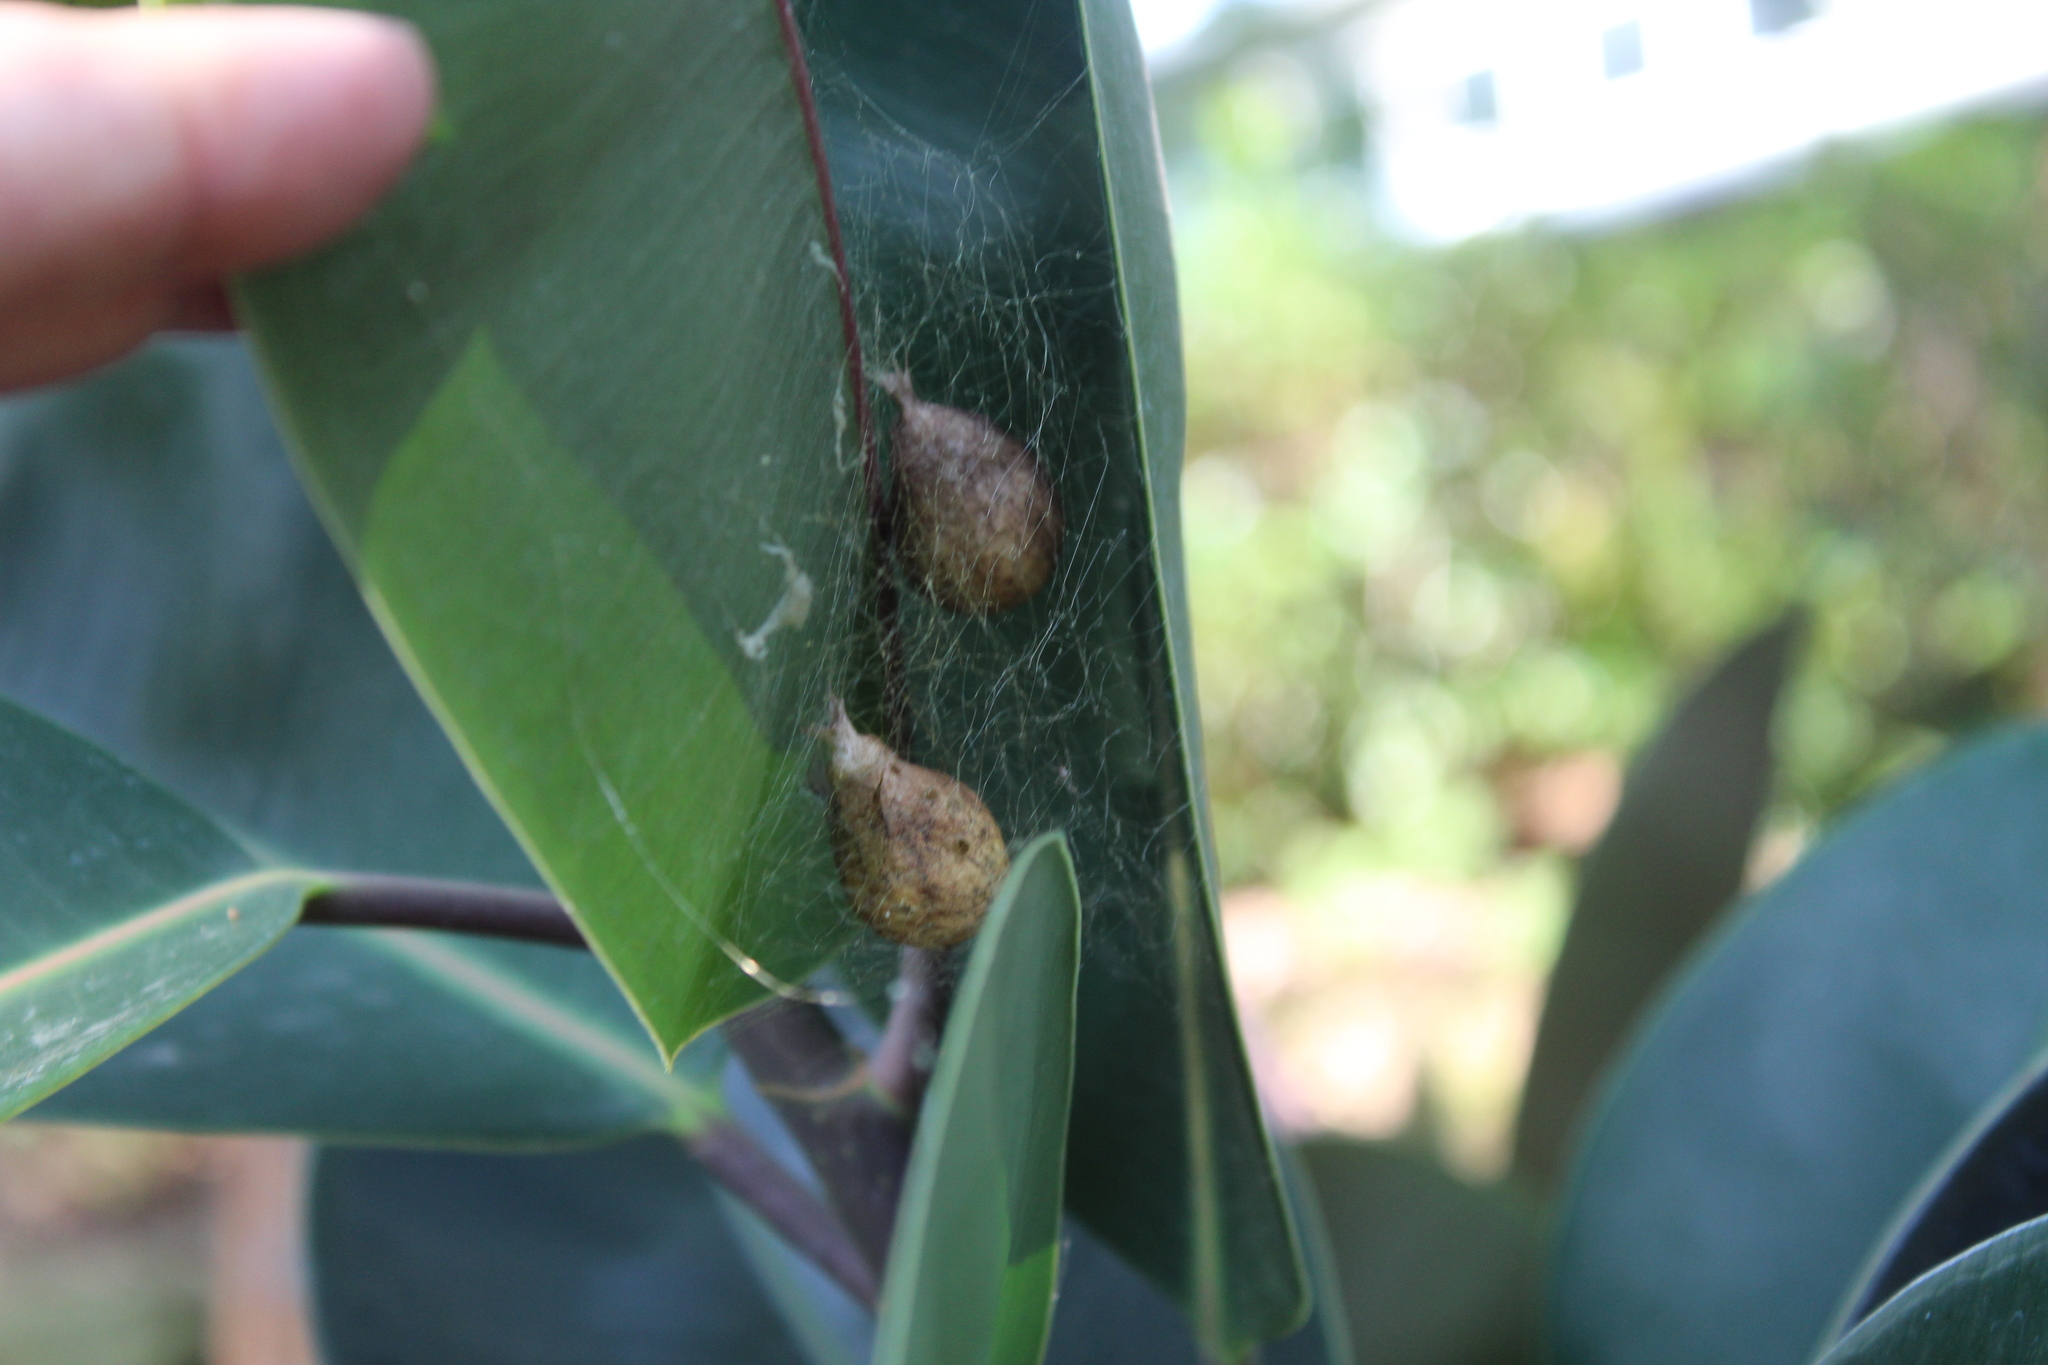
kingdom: Animalia
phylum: Arthropoda
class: Arachnida
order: Araneae
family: Araneidae
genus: Argiope
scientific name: Argiope aurantia
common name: Orb weavers
